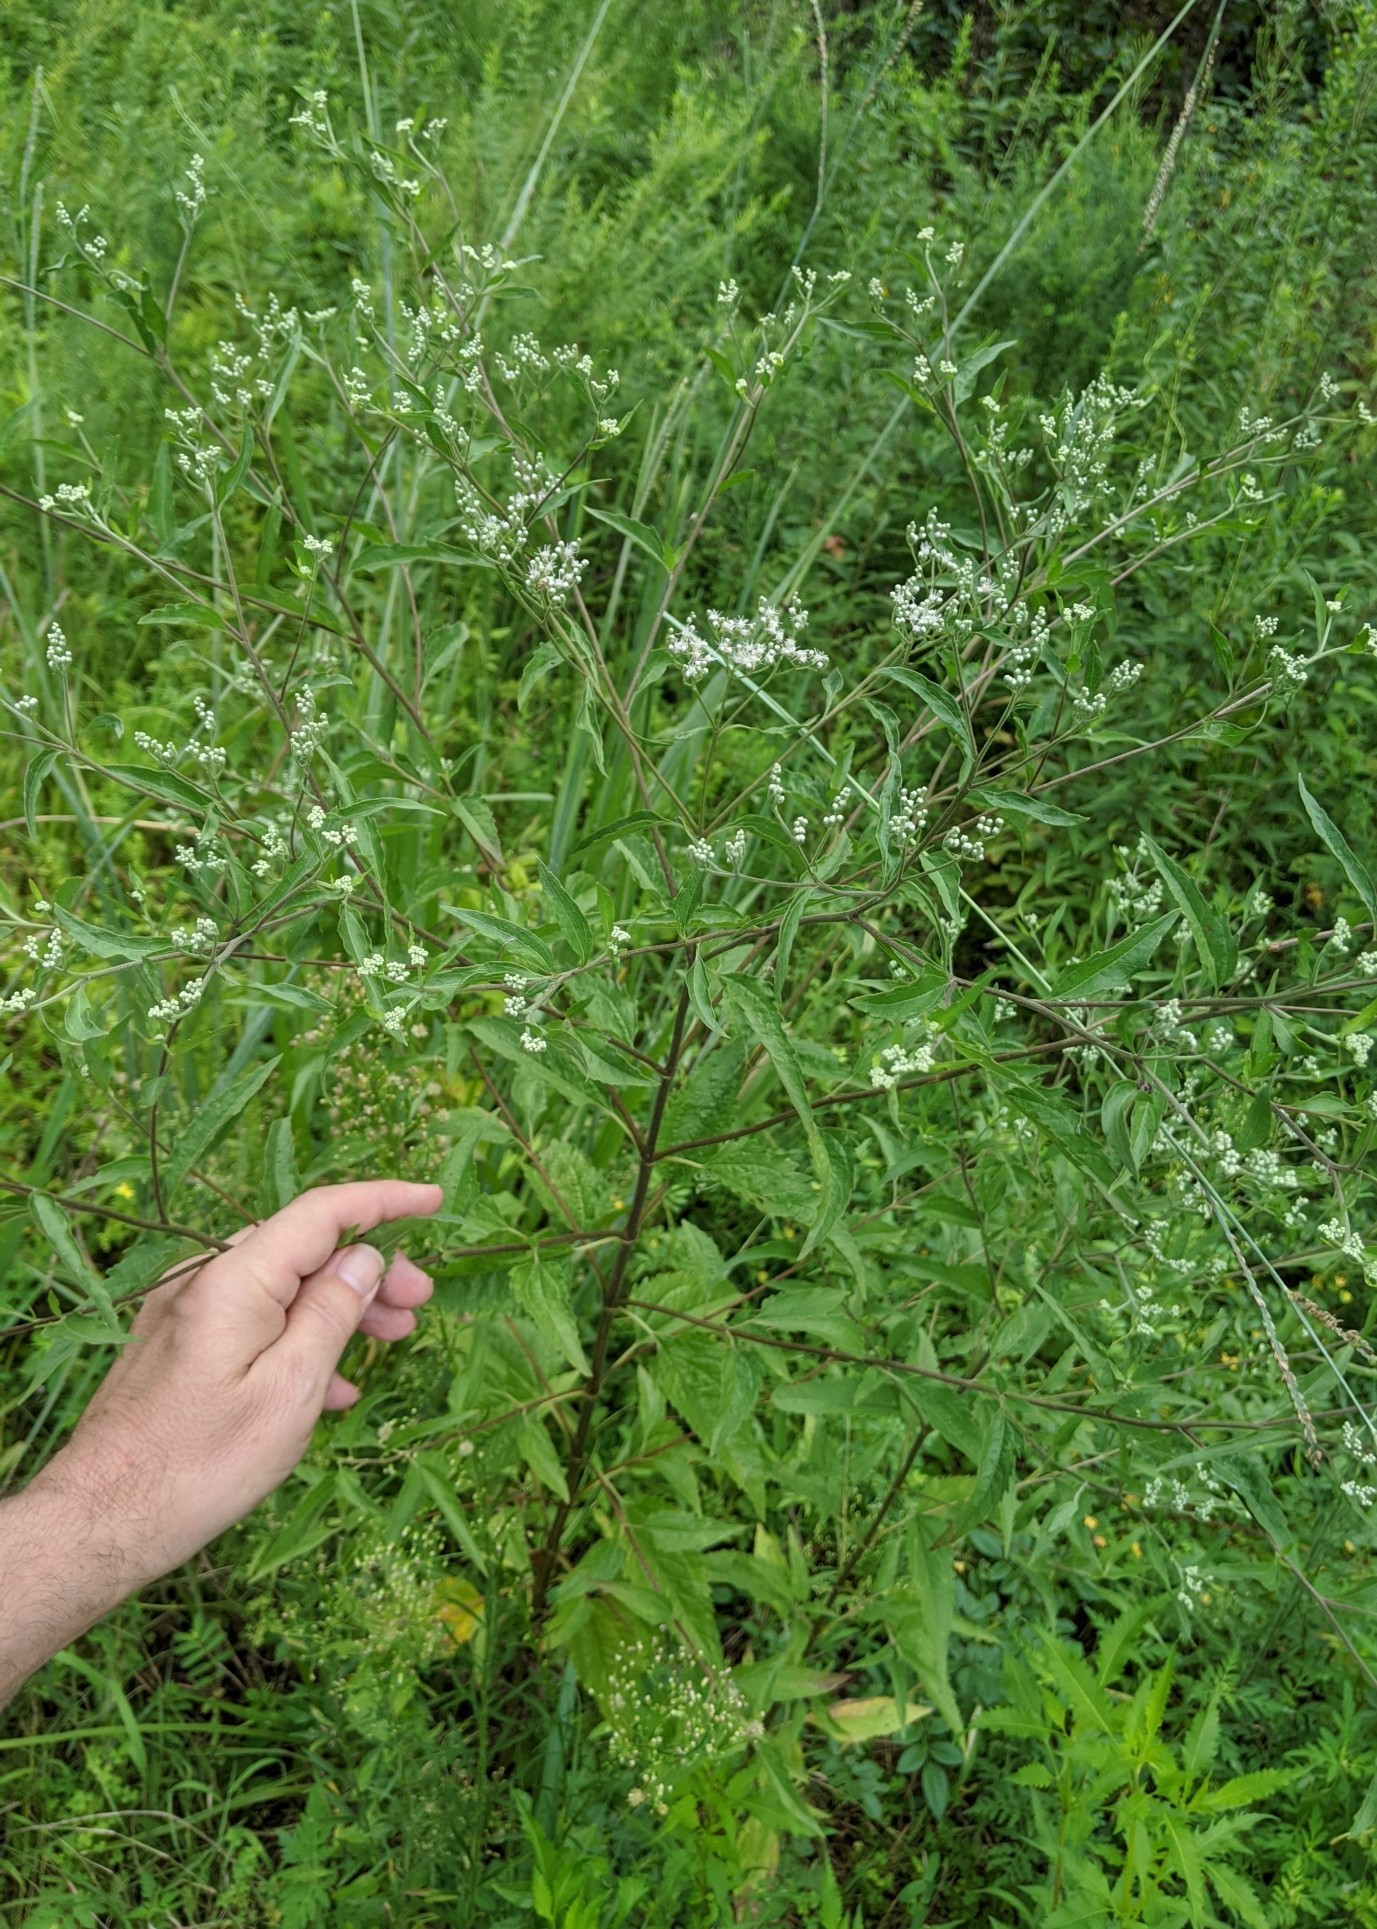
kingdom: Plantae
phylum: Tracheophyta
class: Magnoliopsida
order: Asterales
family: Asteraceae
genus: Eupatorium
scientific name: Eupatorium serotinum
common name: Late boneset
